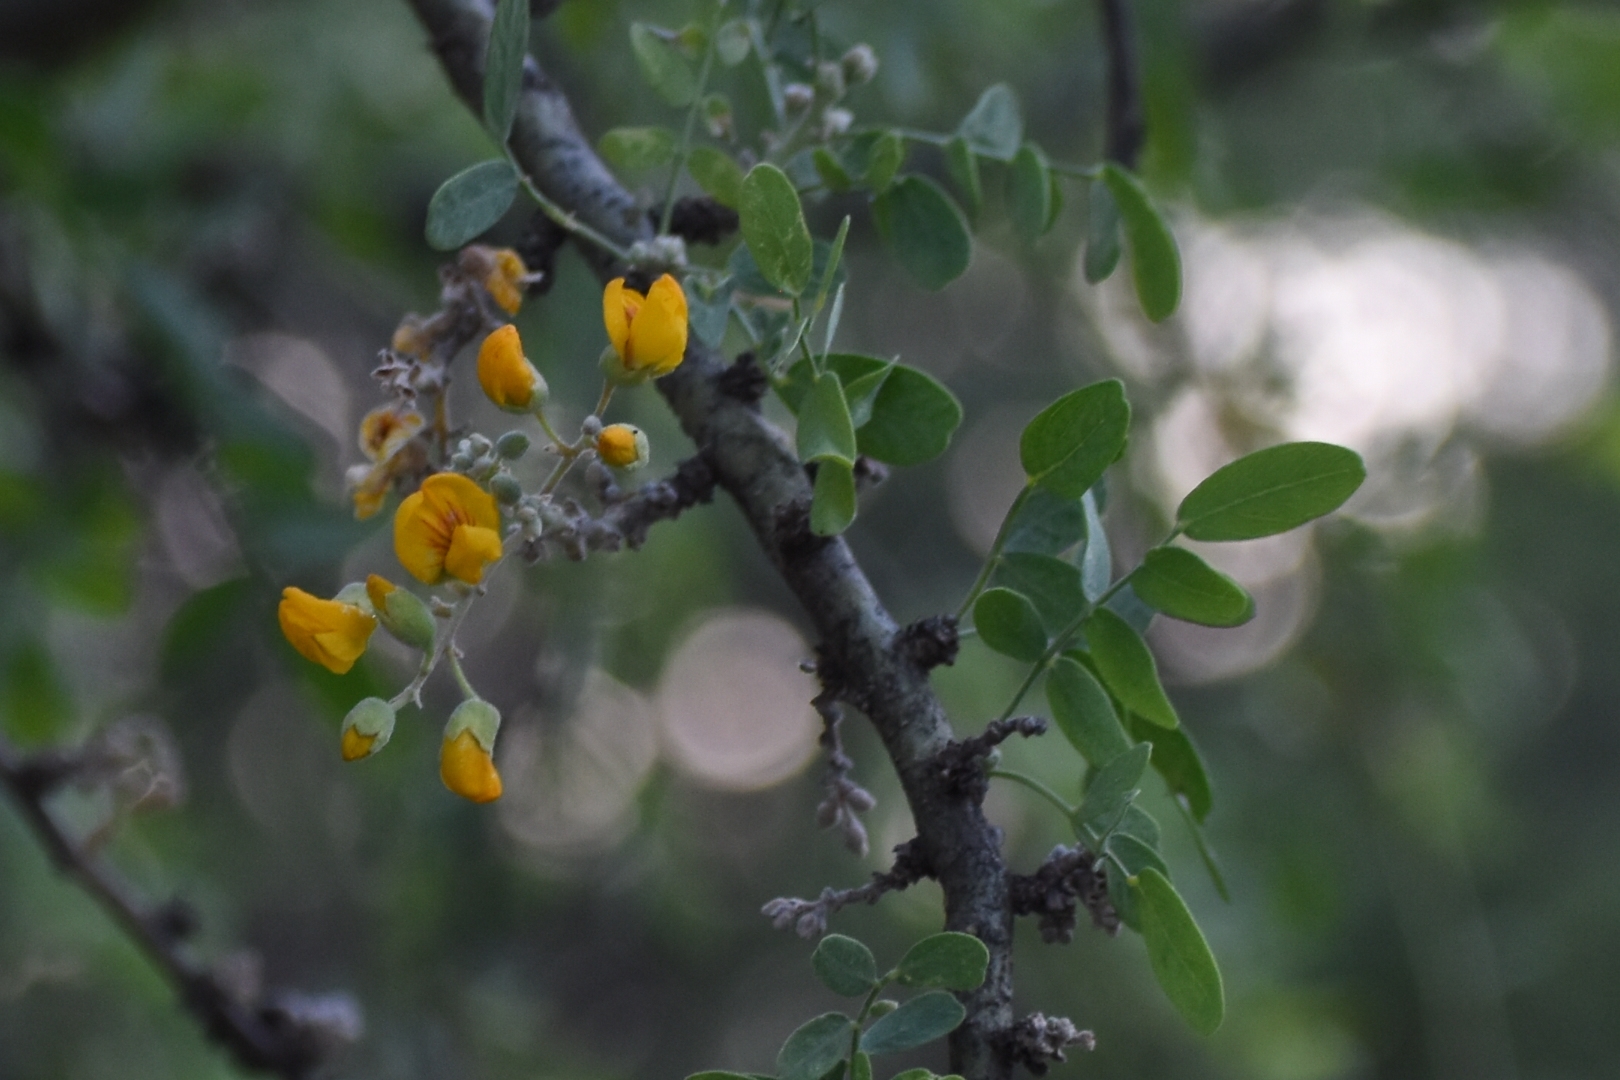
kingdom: Plantae
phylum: Tracheophyta
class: Magnoliopsida
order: Fabales
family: Fabaceae
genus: Geoffroea
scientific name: Geoffroea decorticans
